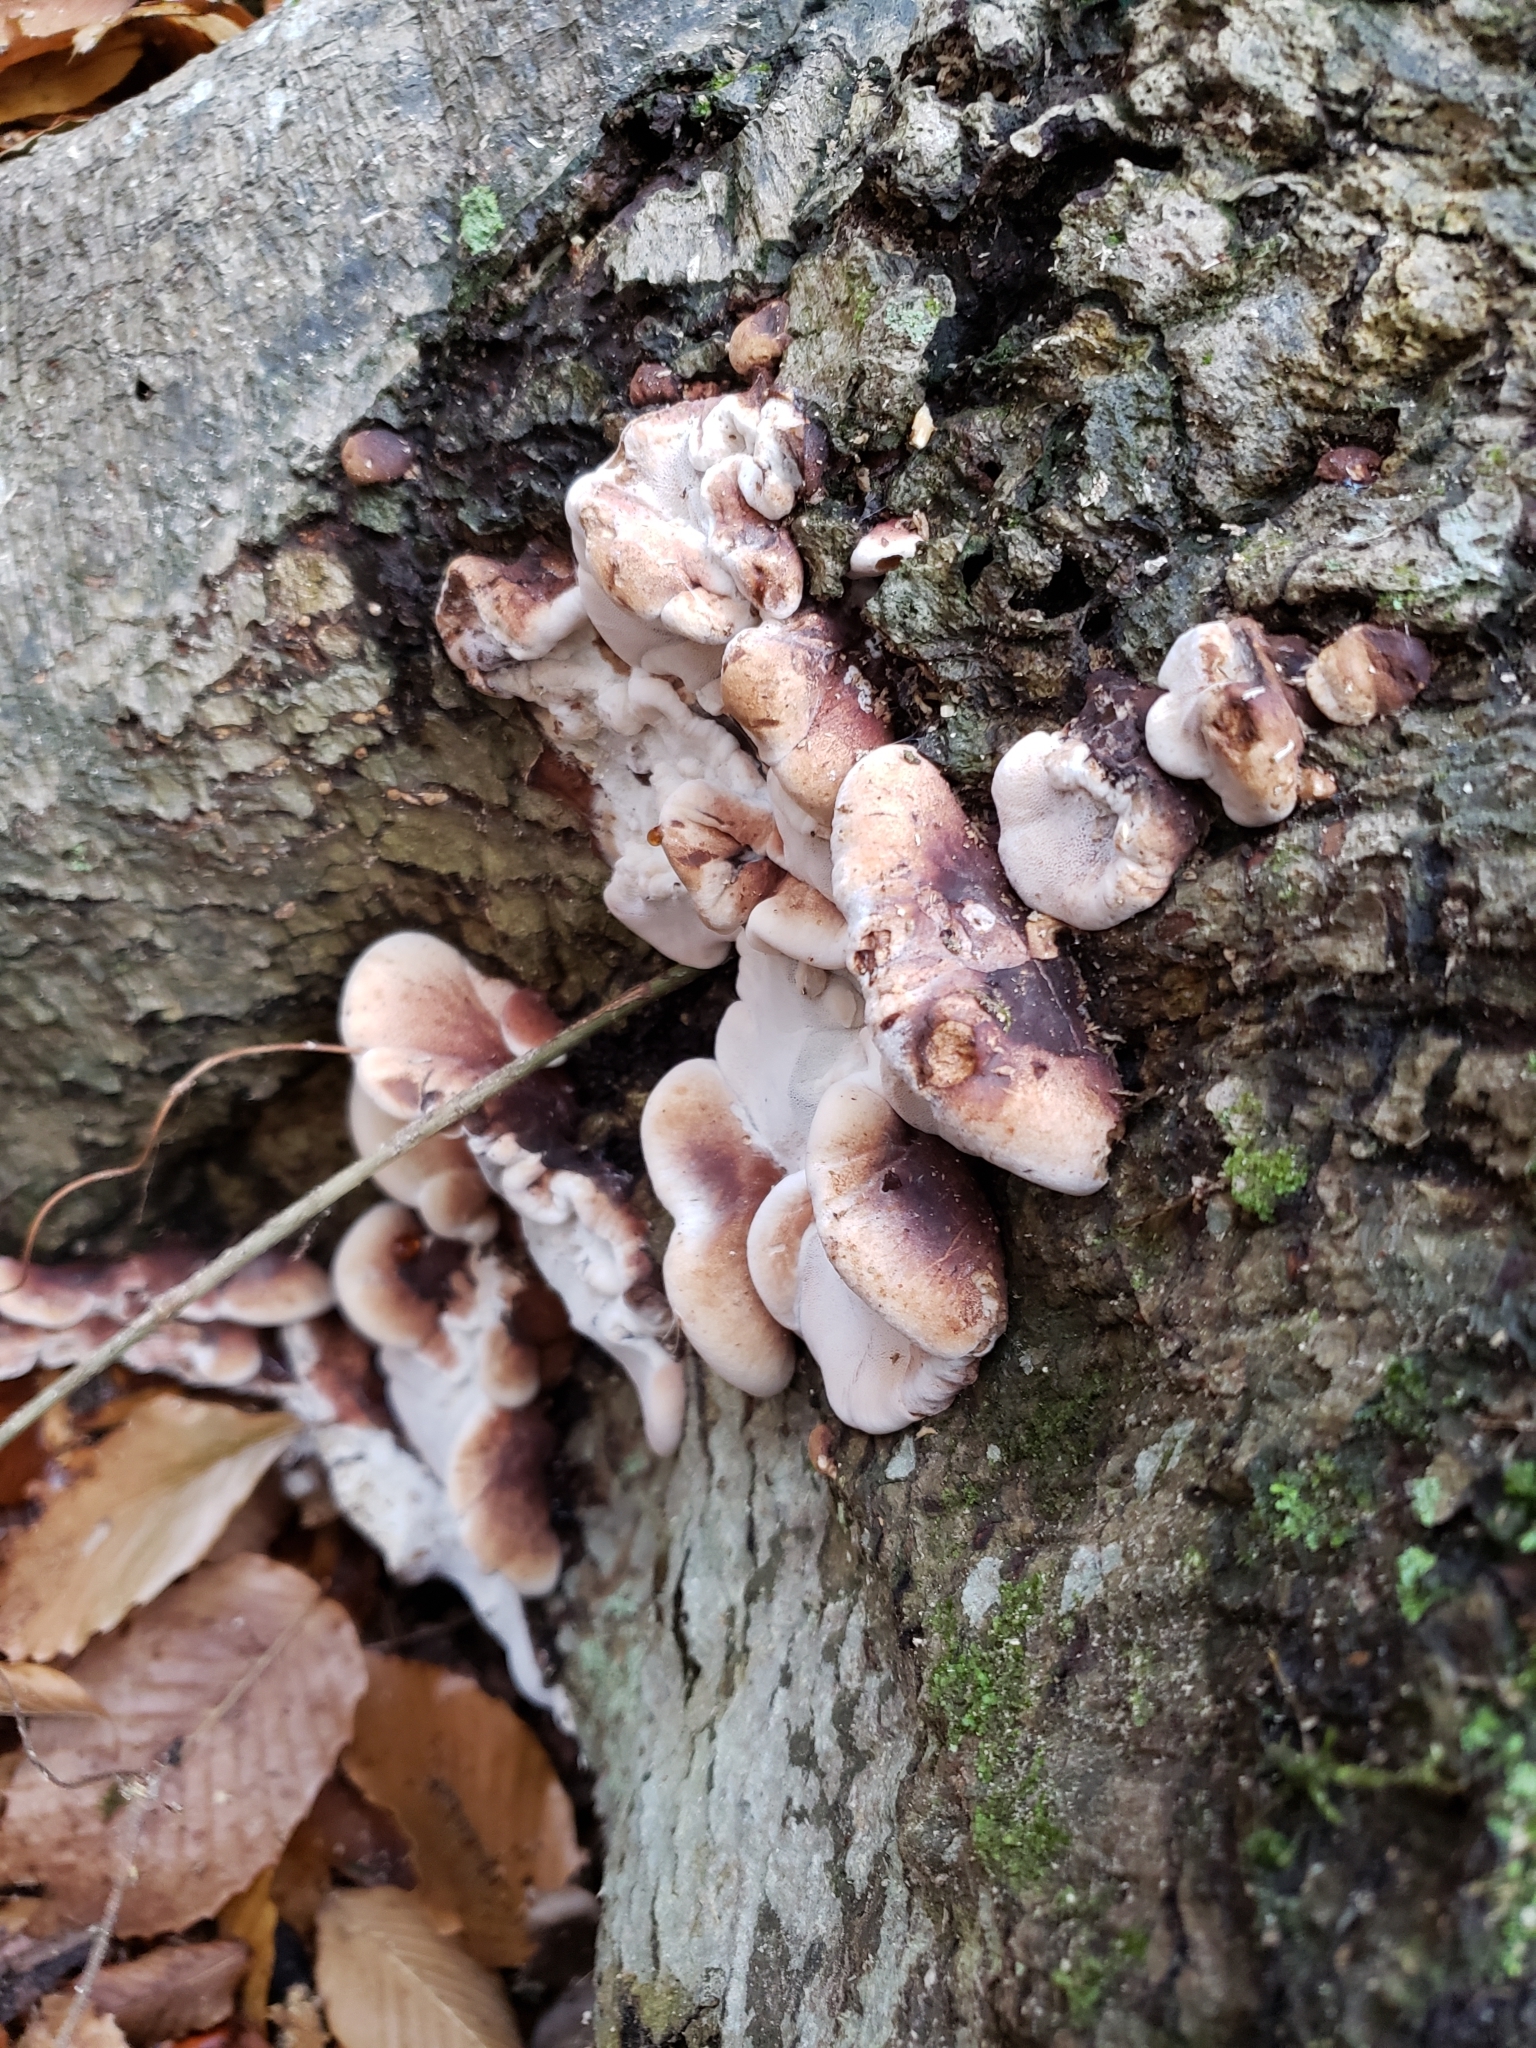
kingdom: Fungi
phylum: Basidiomycota
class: Agaricomycetes
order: Polyporales
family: Ischnodermataceae
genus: Ischnoderma
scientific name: Ischnoderma resinosum
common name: Resinous polypore
